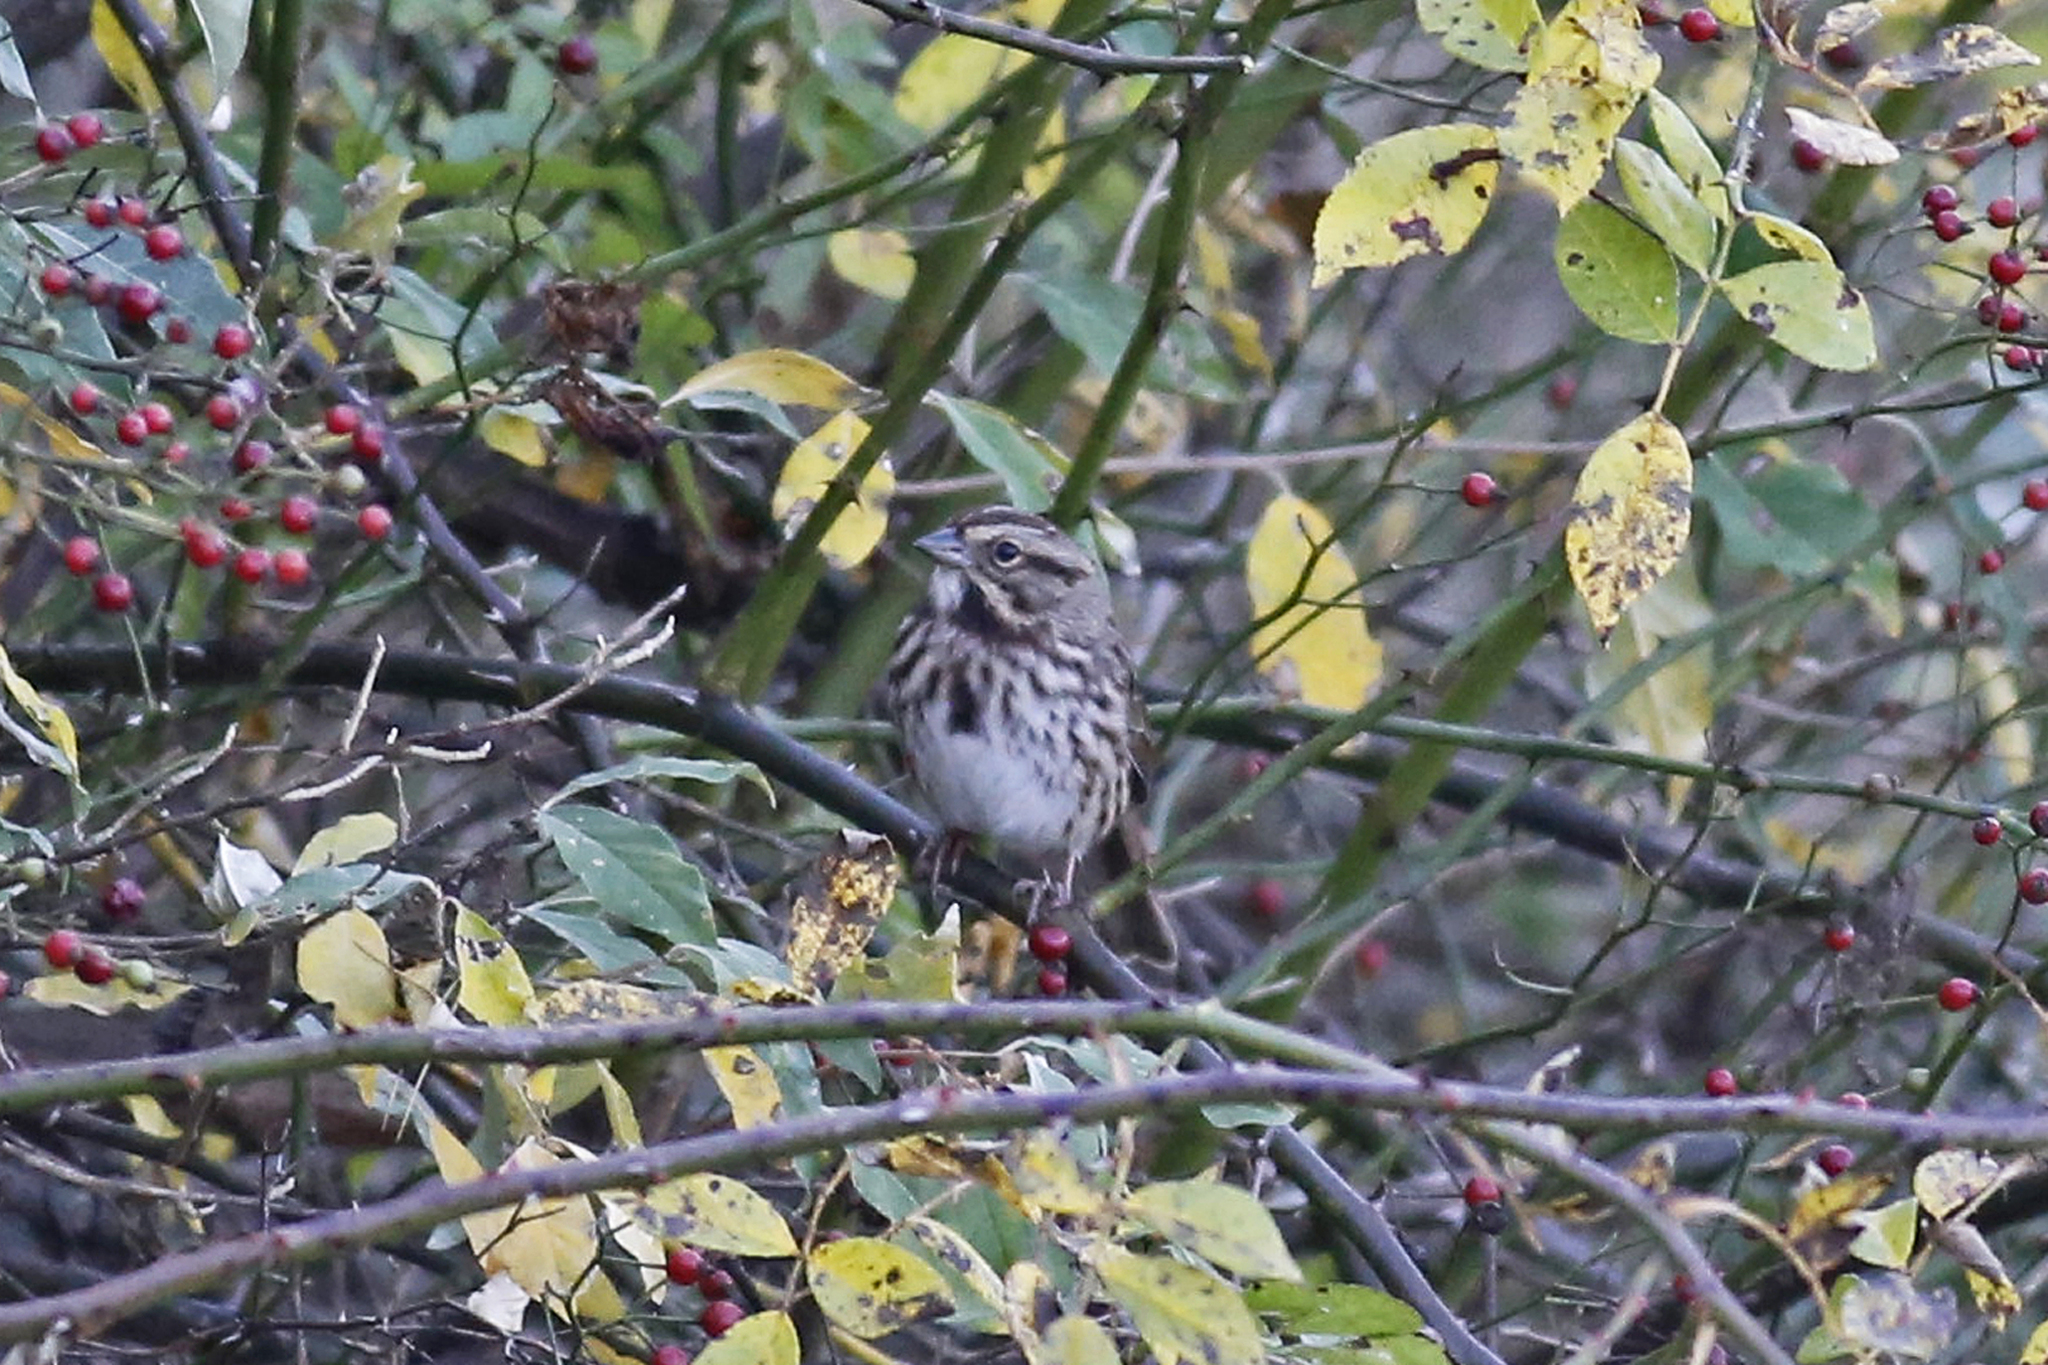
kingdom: Animalia
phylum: Chordata
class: Aves
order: Passeriformes
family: Passerellidae
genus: Melospiza
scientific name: Melospiza melodia
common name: Song sparrow
